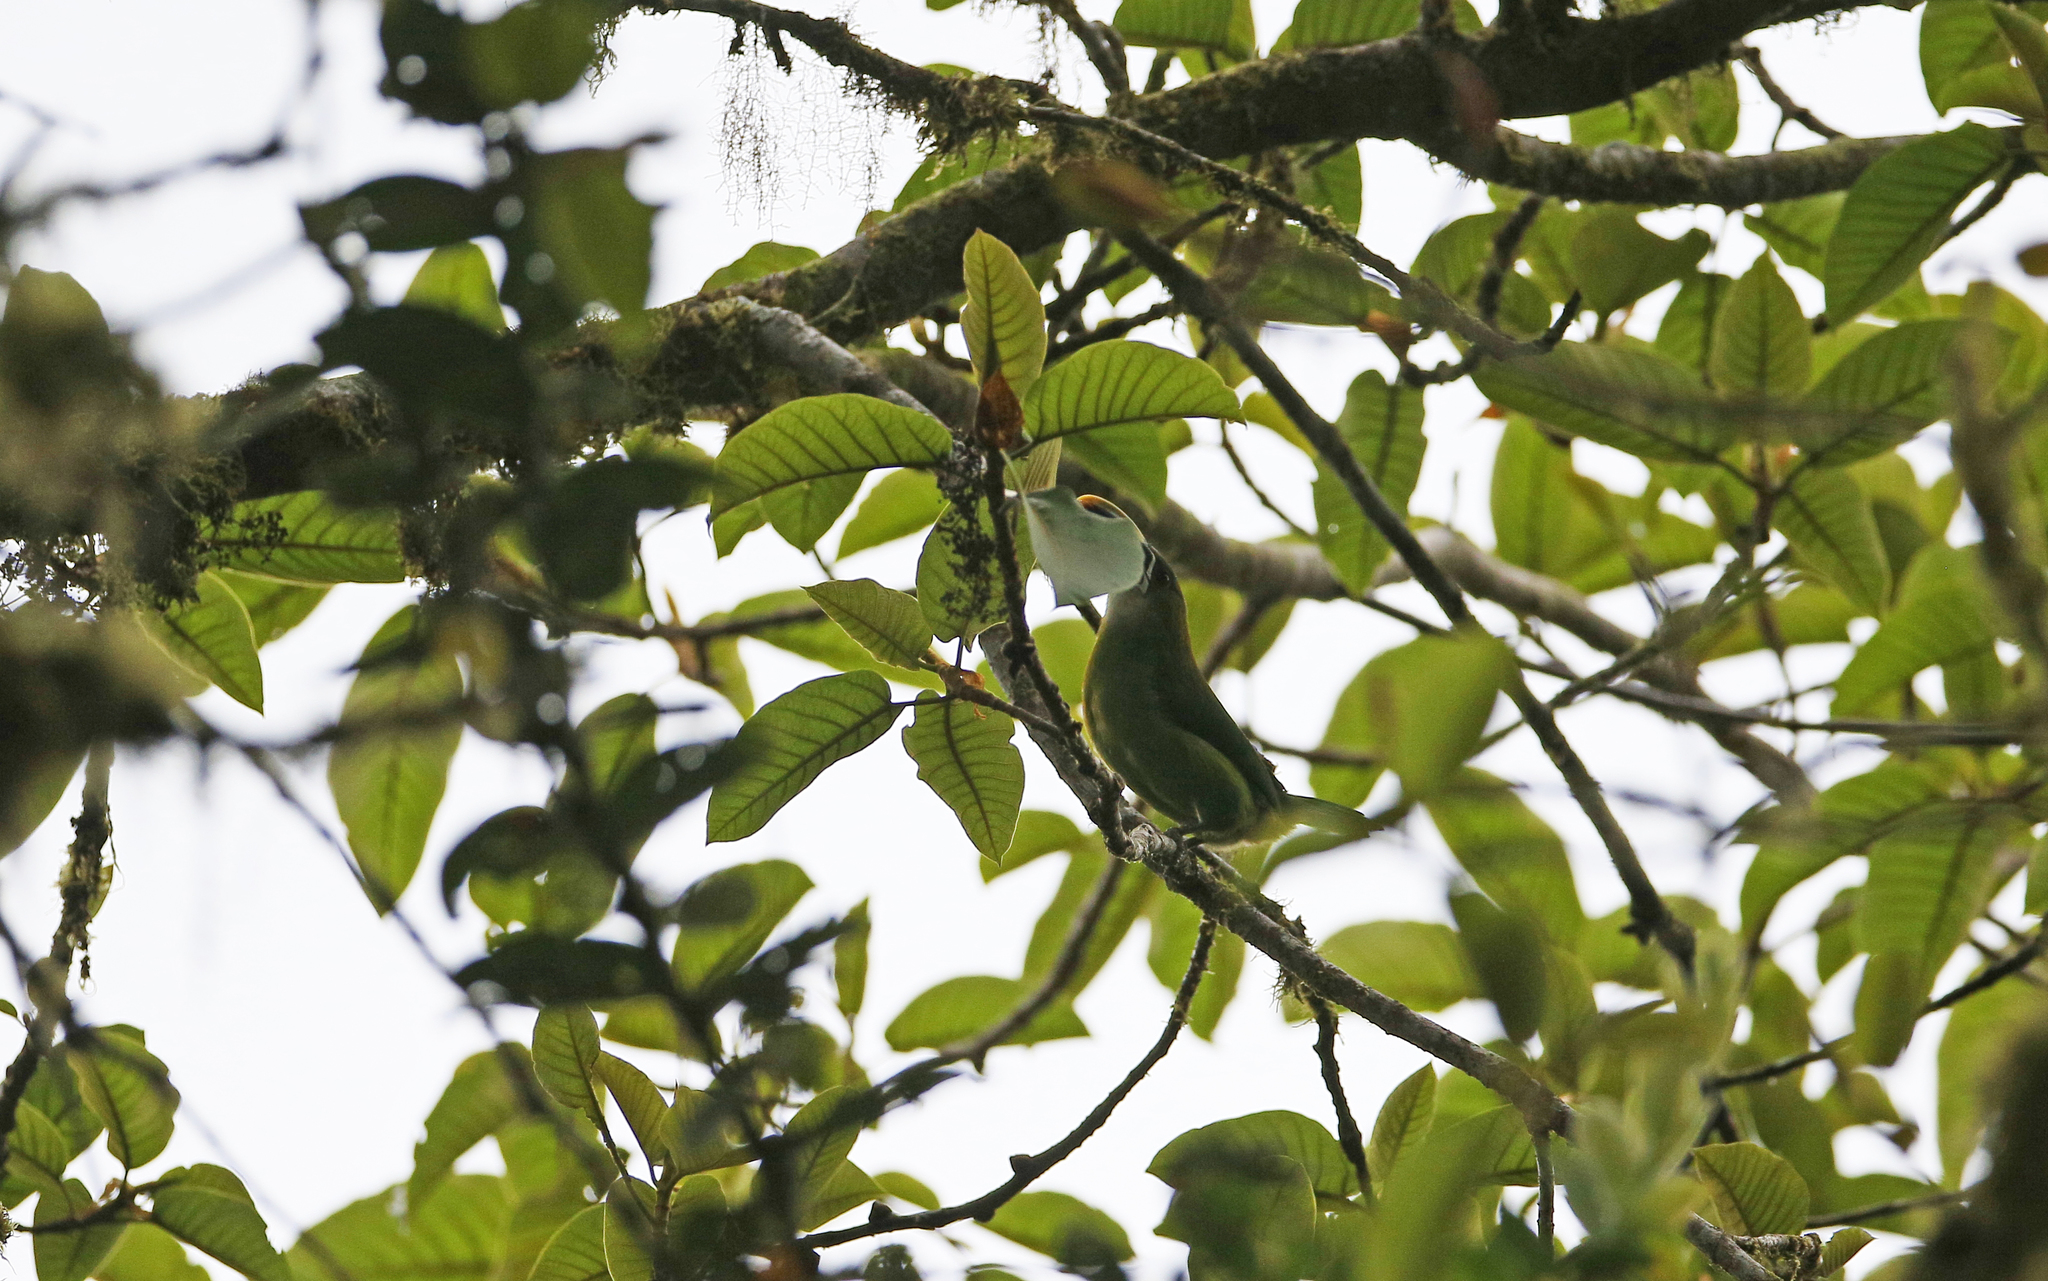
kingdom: Animalia
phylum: Chordata
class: Aves
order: Piciformes
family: Ramphastidae
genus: Aulacorhynchus
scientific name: Aulacorhynchus albivitta
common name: White-throated toucanet
